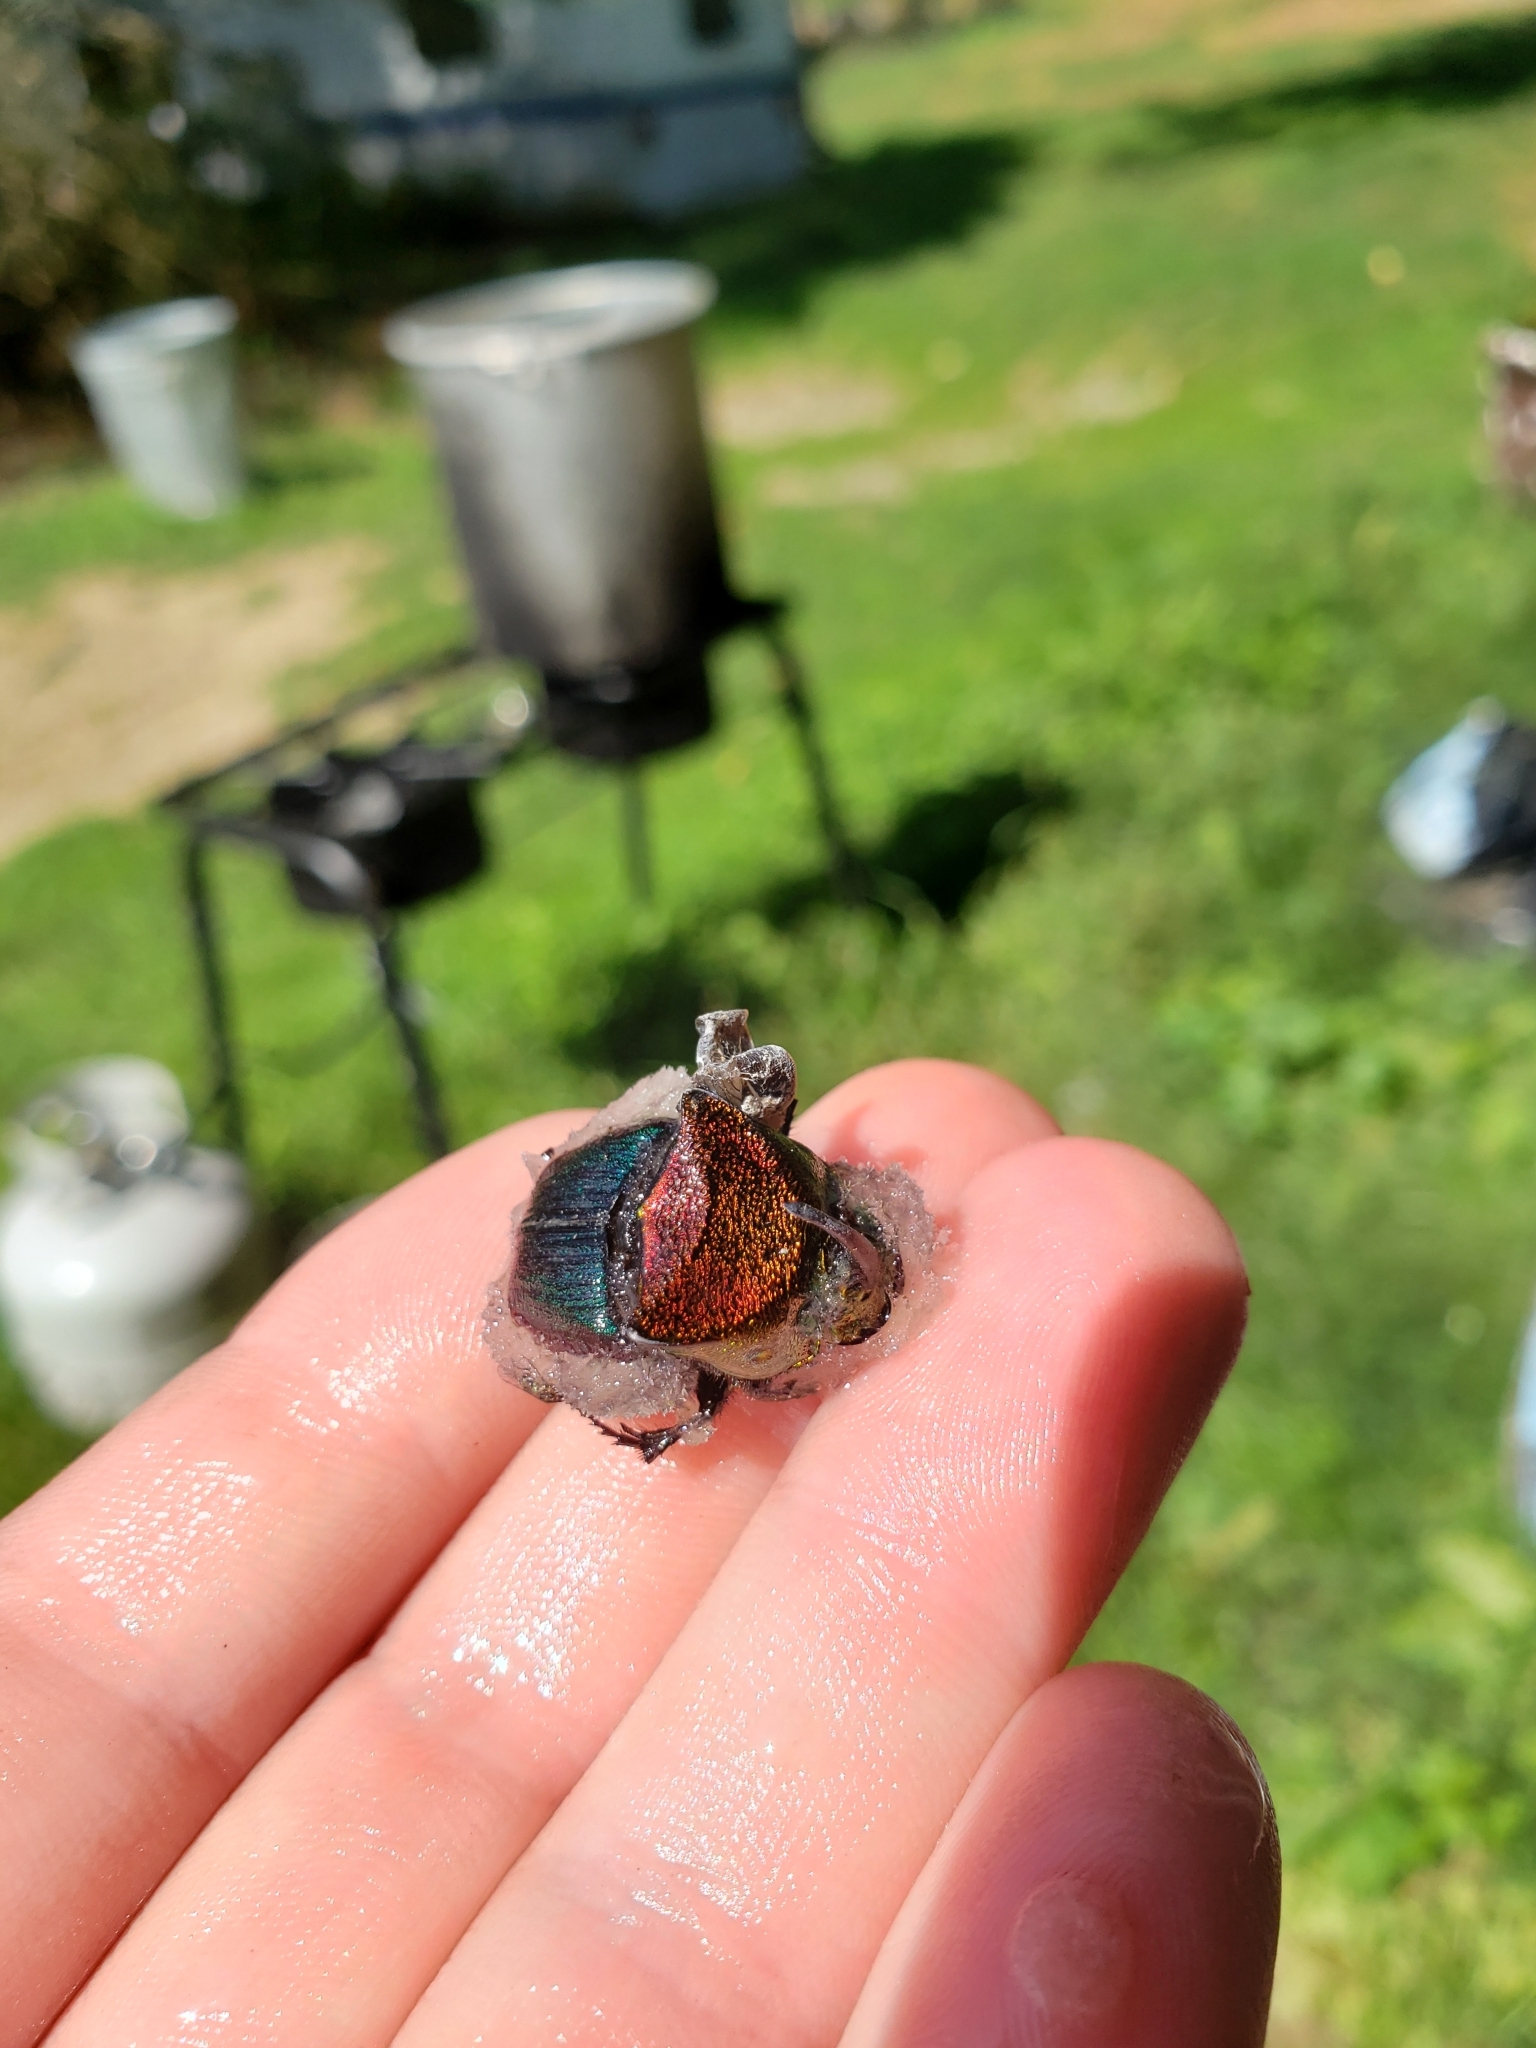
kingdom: Animalia
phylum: Arthropoda
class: Insecta
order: Coleoptera
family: Scarabaeidae
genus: Phanaeus
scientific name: Phanaeus vindex
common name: Rainbow scarab
